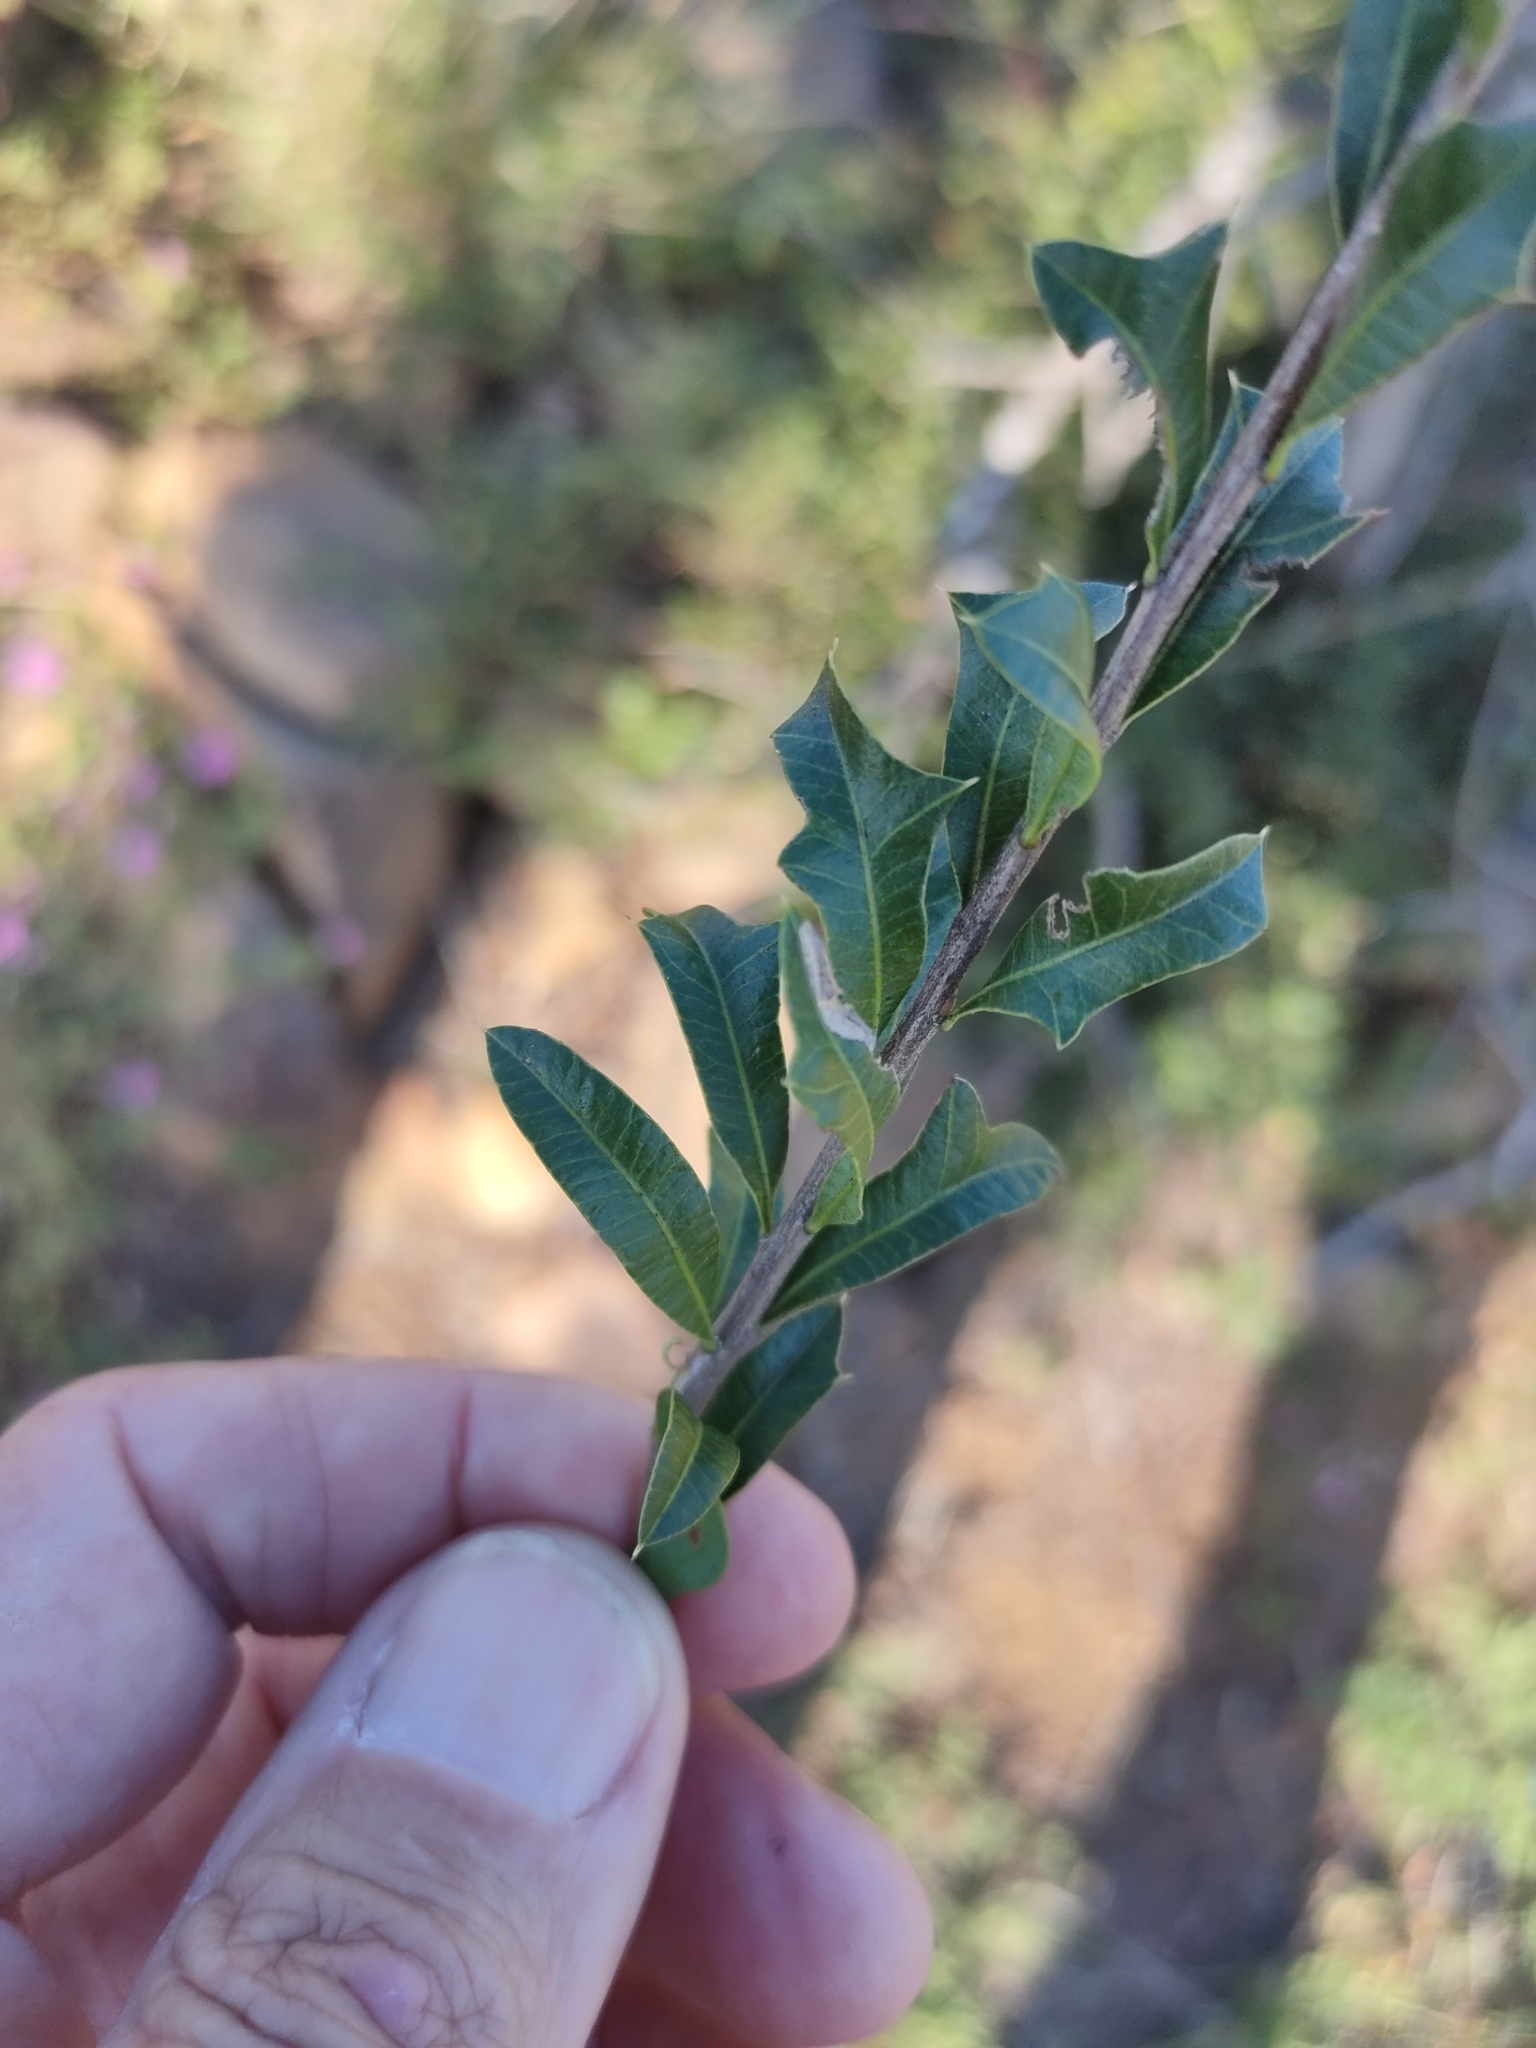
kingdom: Plantae
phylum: Tracheophyta
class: Magnoliopsida
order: Sapindales
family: Sapindaceae
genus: Alectryon
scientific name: Alectryon diversifolius
